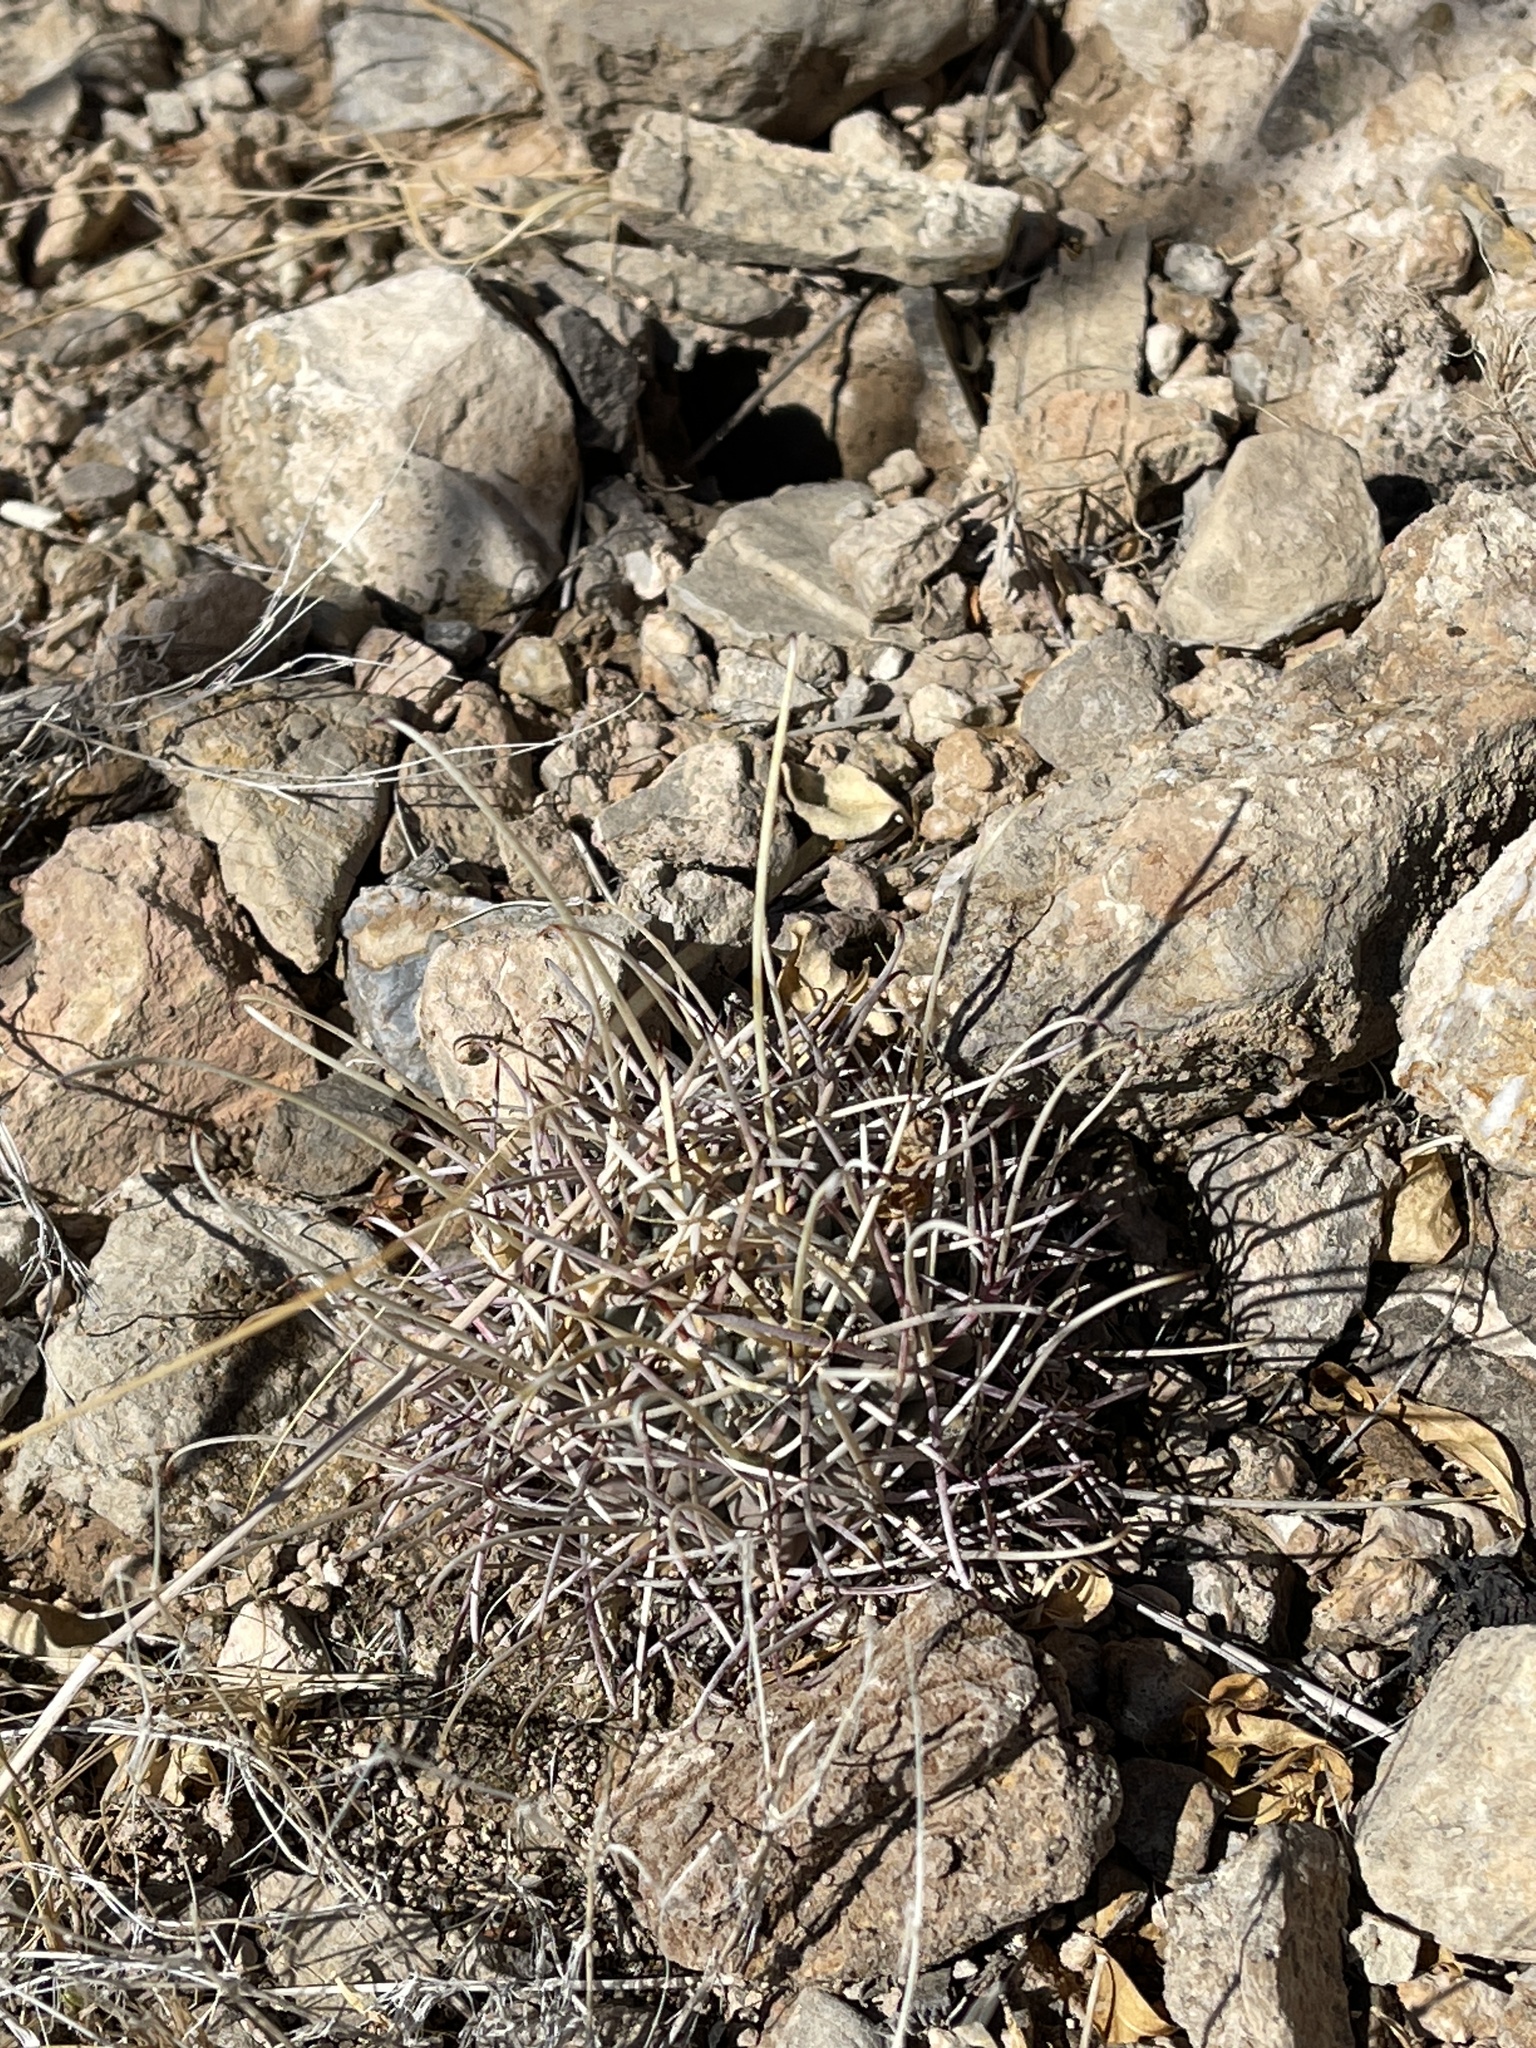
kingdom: Plantae
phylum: Tracheophyta
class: Magnoliopsida
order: Caryophyllales
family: Cactaceae
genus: Ferocactus
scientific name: Ferocactus uncinatus
